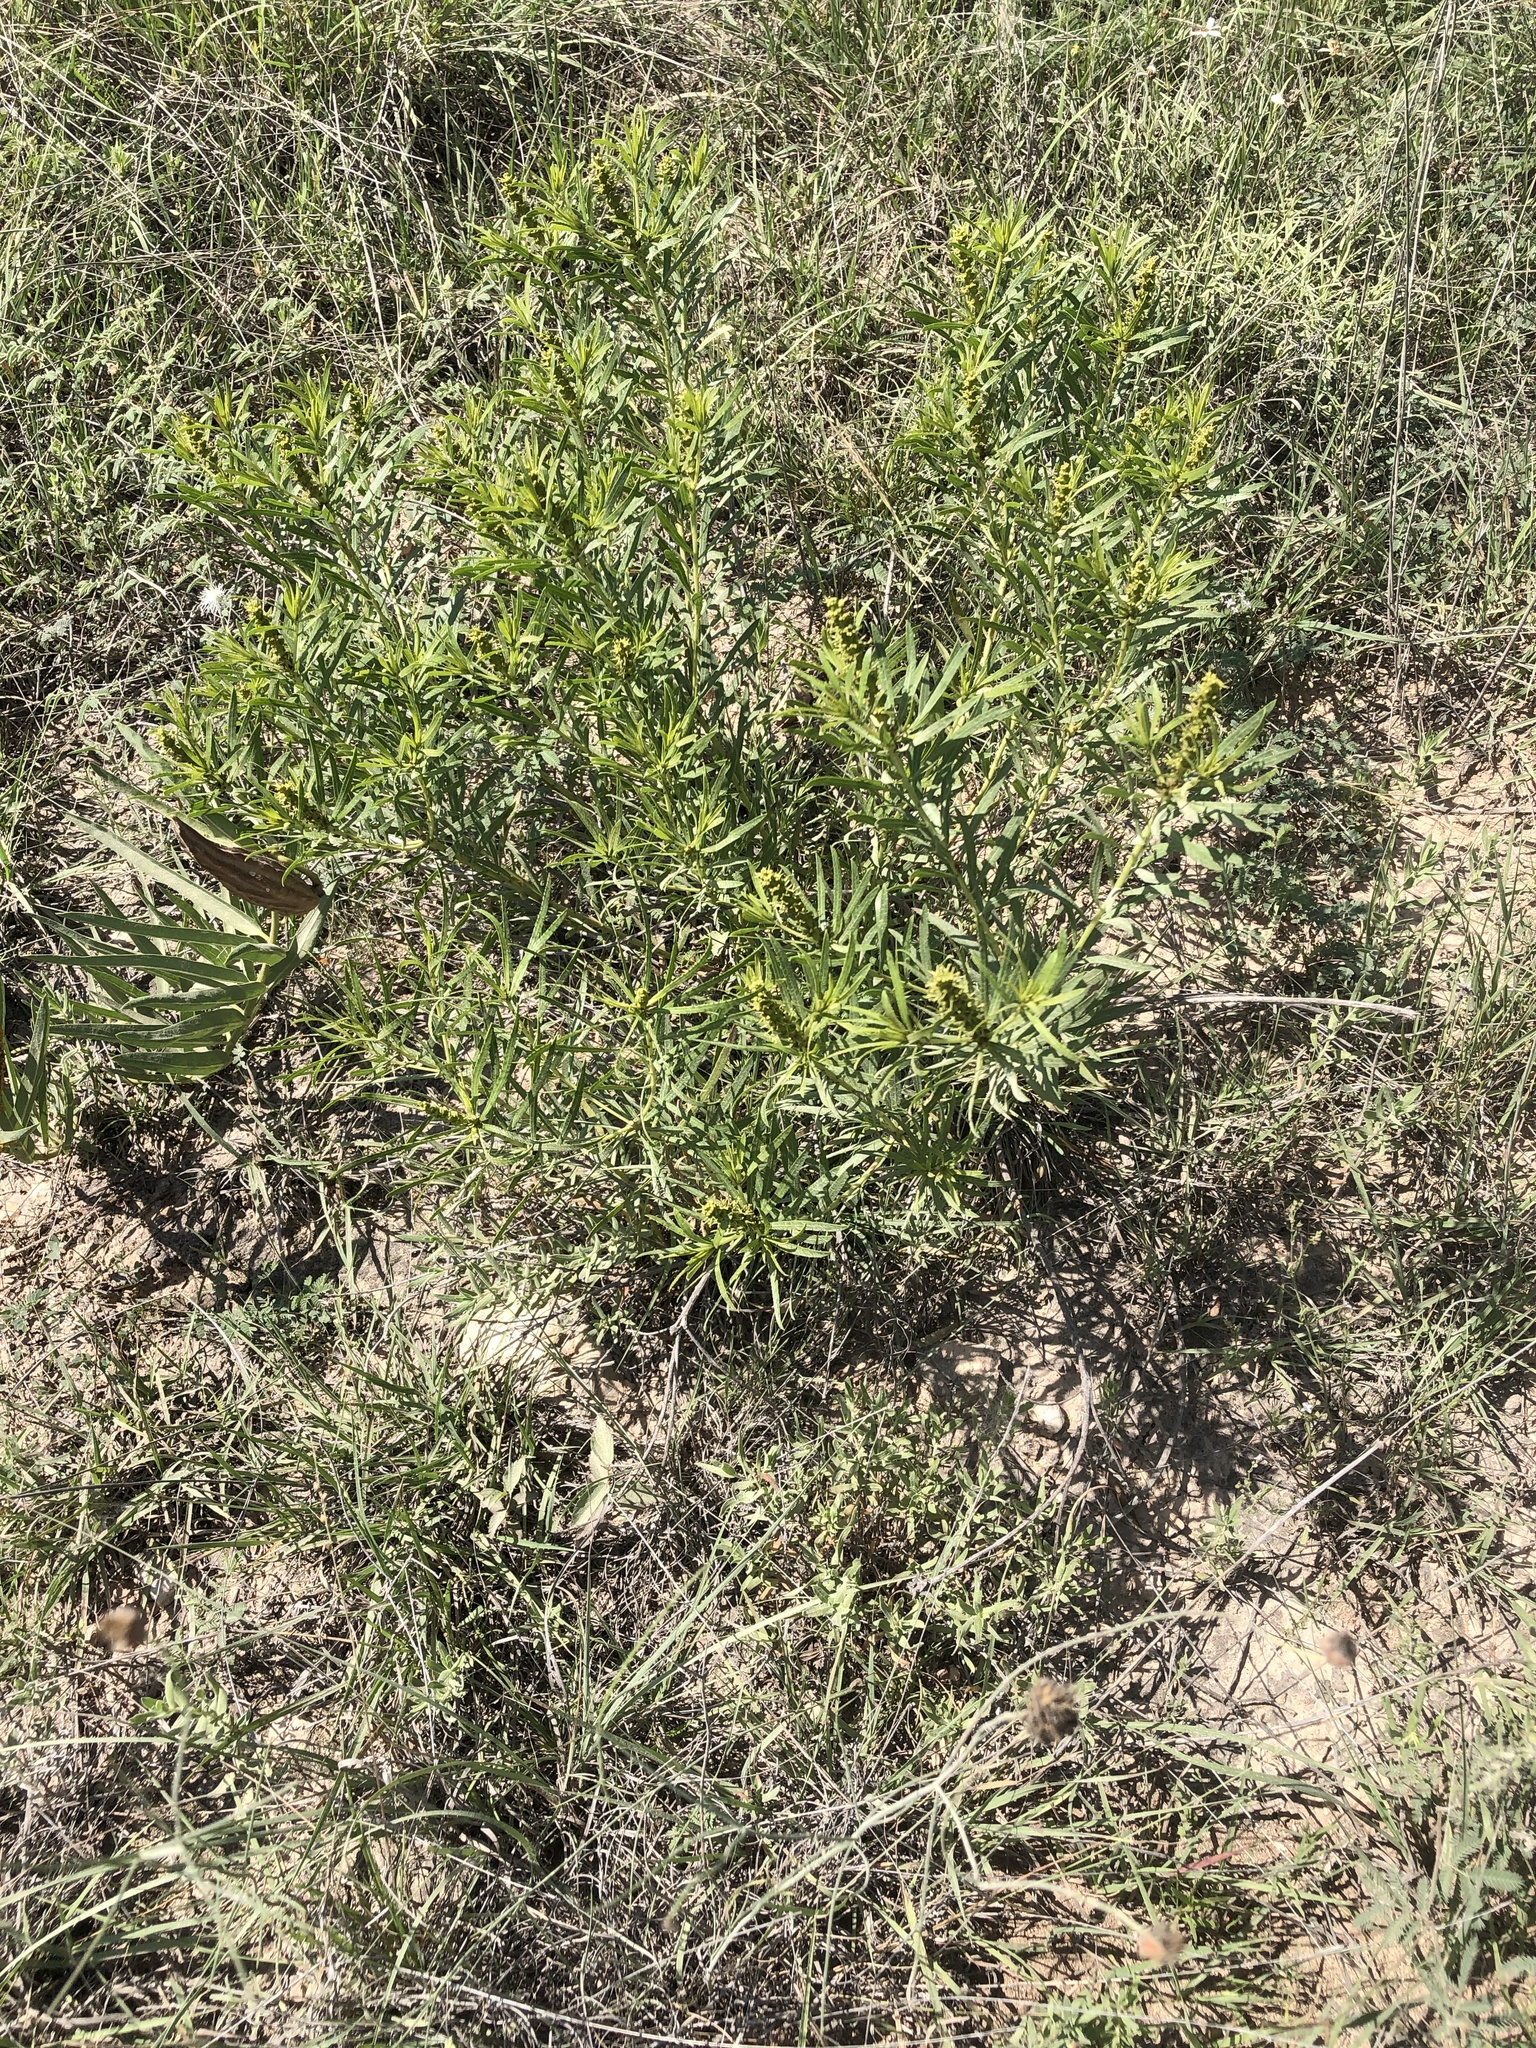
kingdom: Plantae
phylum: Tracheophyta
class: Magnoliopsida
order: Malpighiales
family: Euphorbiaceae
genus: Stillingia
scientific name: Stillingia texana
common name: Texas stillingia
